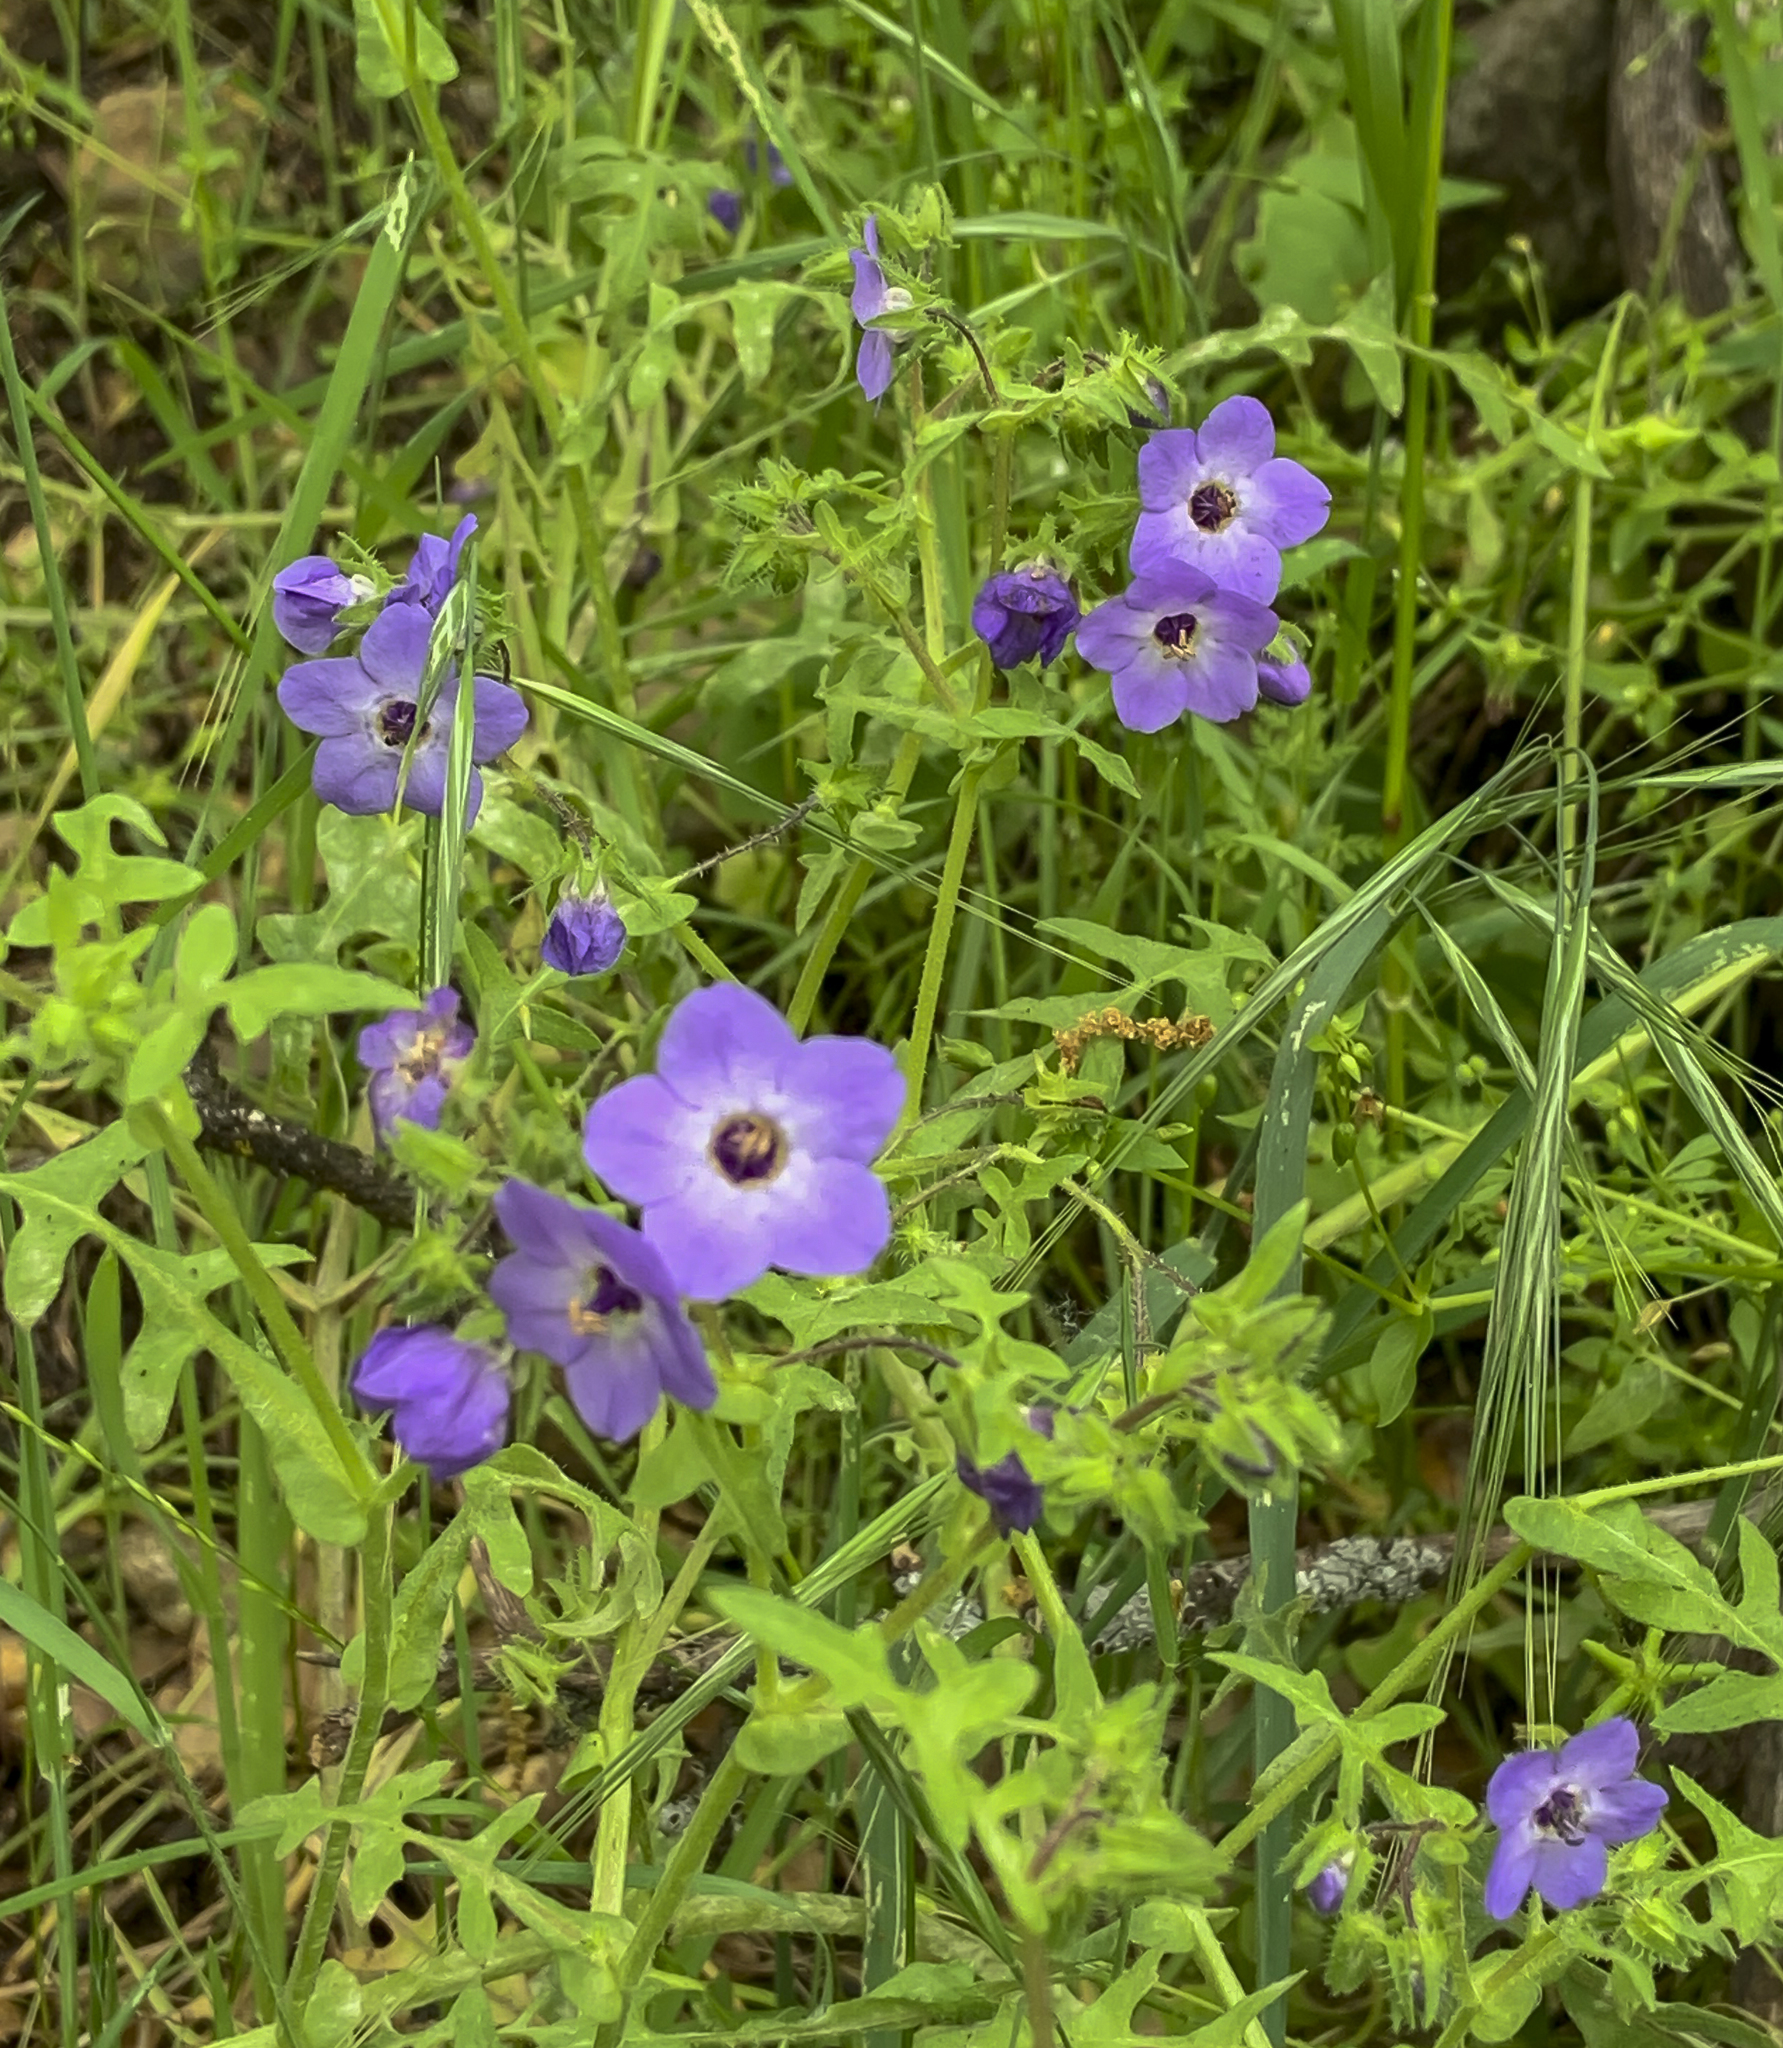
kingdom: Plantae
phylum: Tracheophyta
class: Magnoliopsida
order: Boraginales
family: Hydrophyllaceae
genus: Pholistoma
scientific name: Pholistoma auritum
